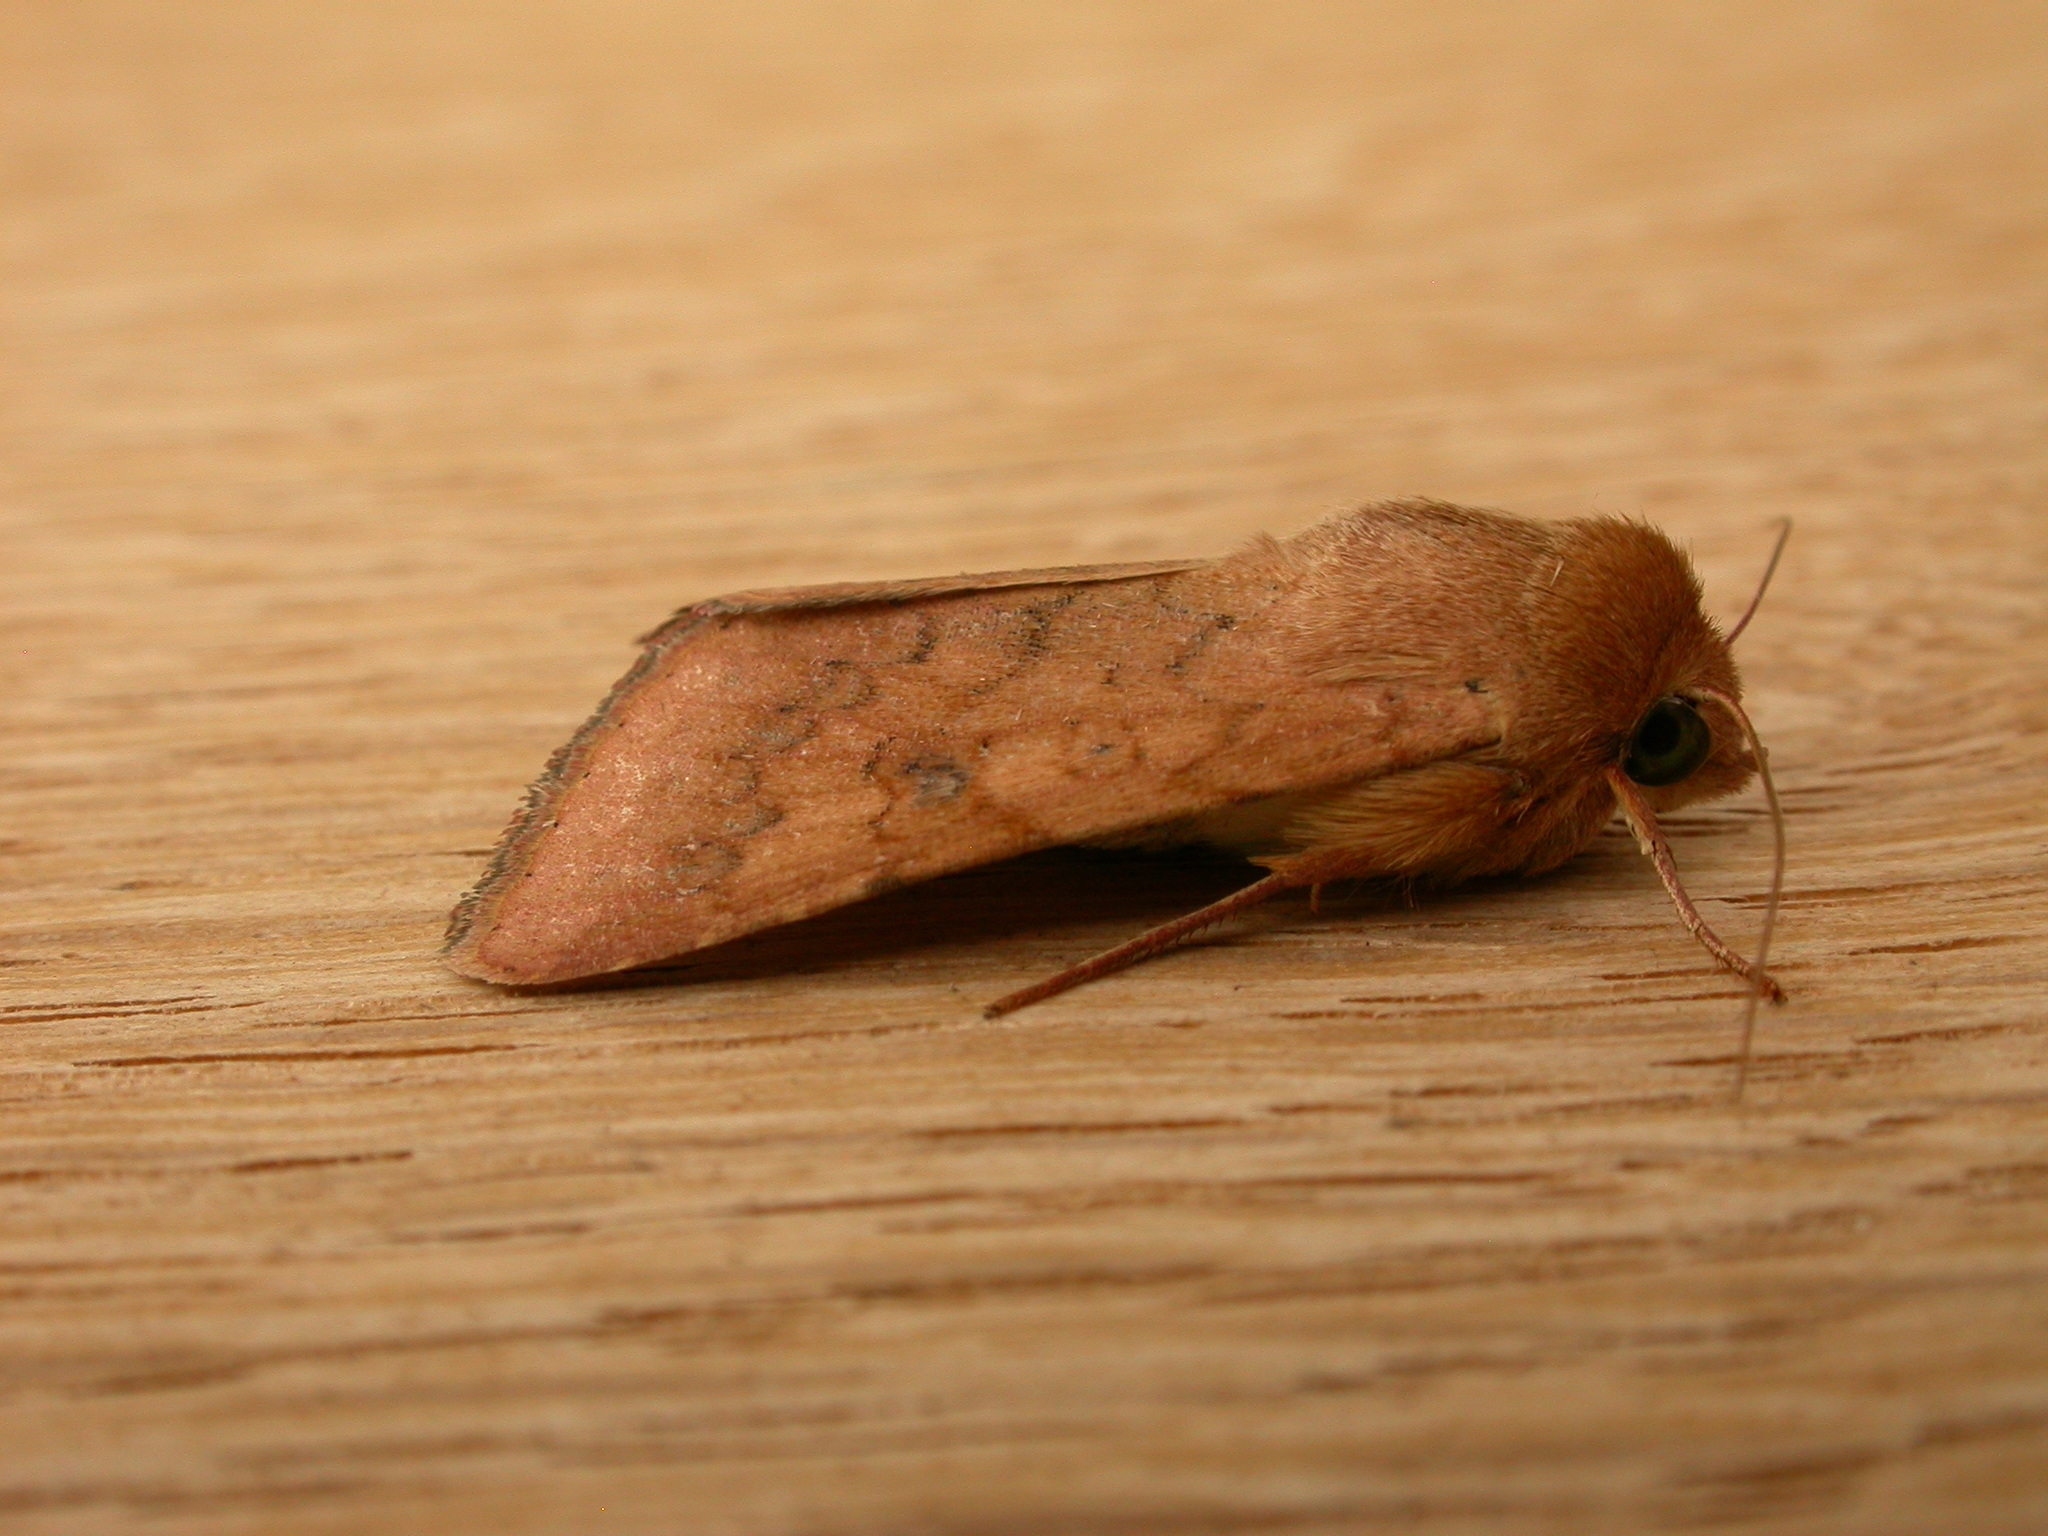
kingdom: Animalia
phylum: Arthropoda
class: Insecta
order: Lepidoptera
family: Noctuidae
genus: Helicoverpa
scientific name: Helicoverpa armigera
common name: Cotton bollworm
